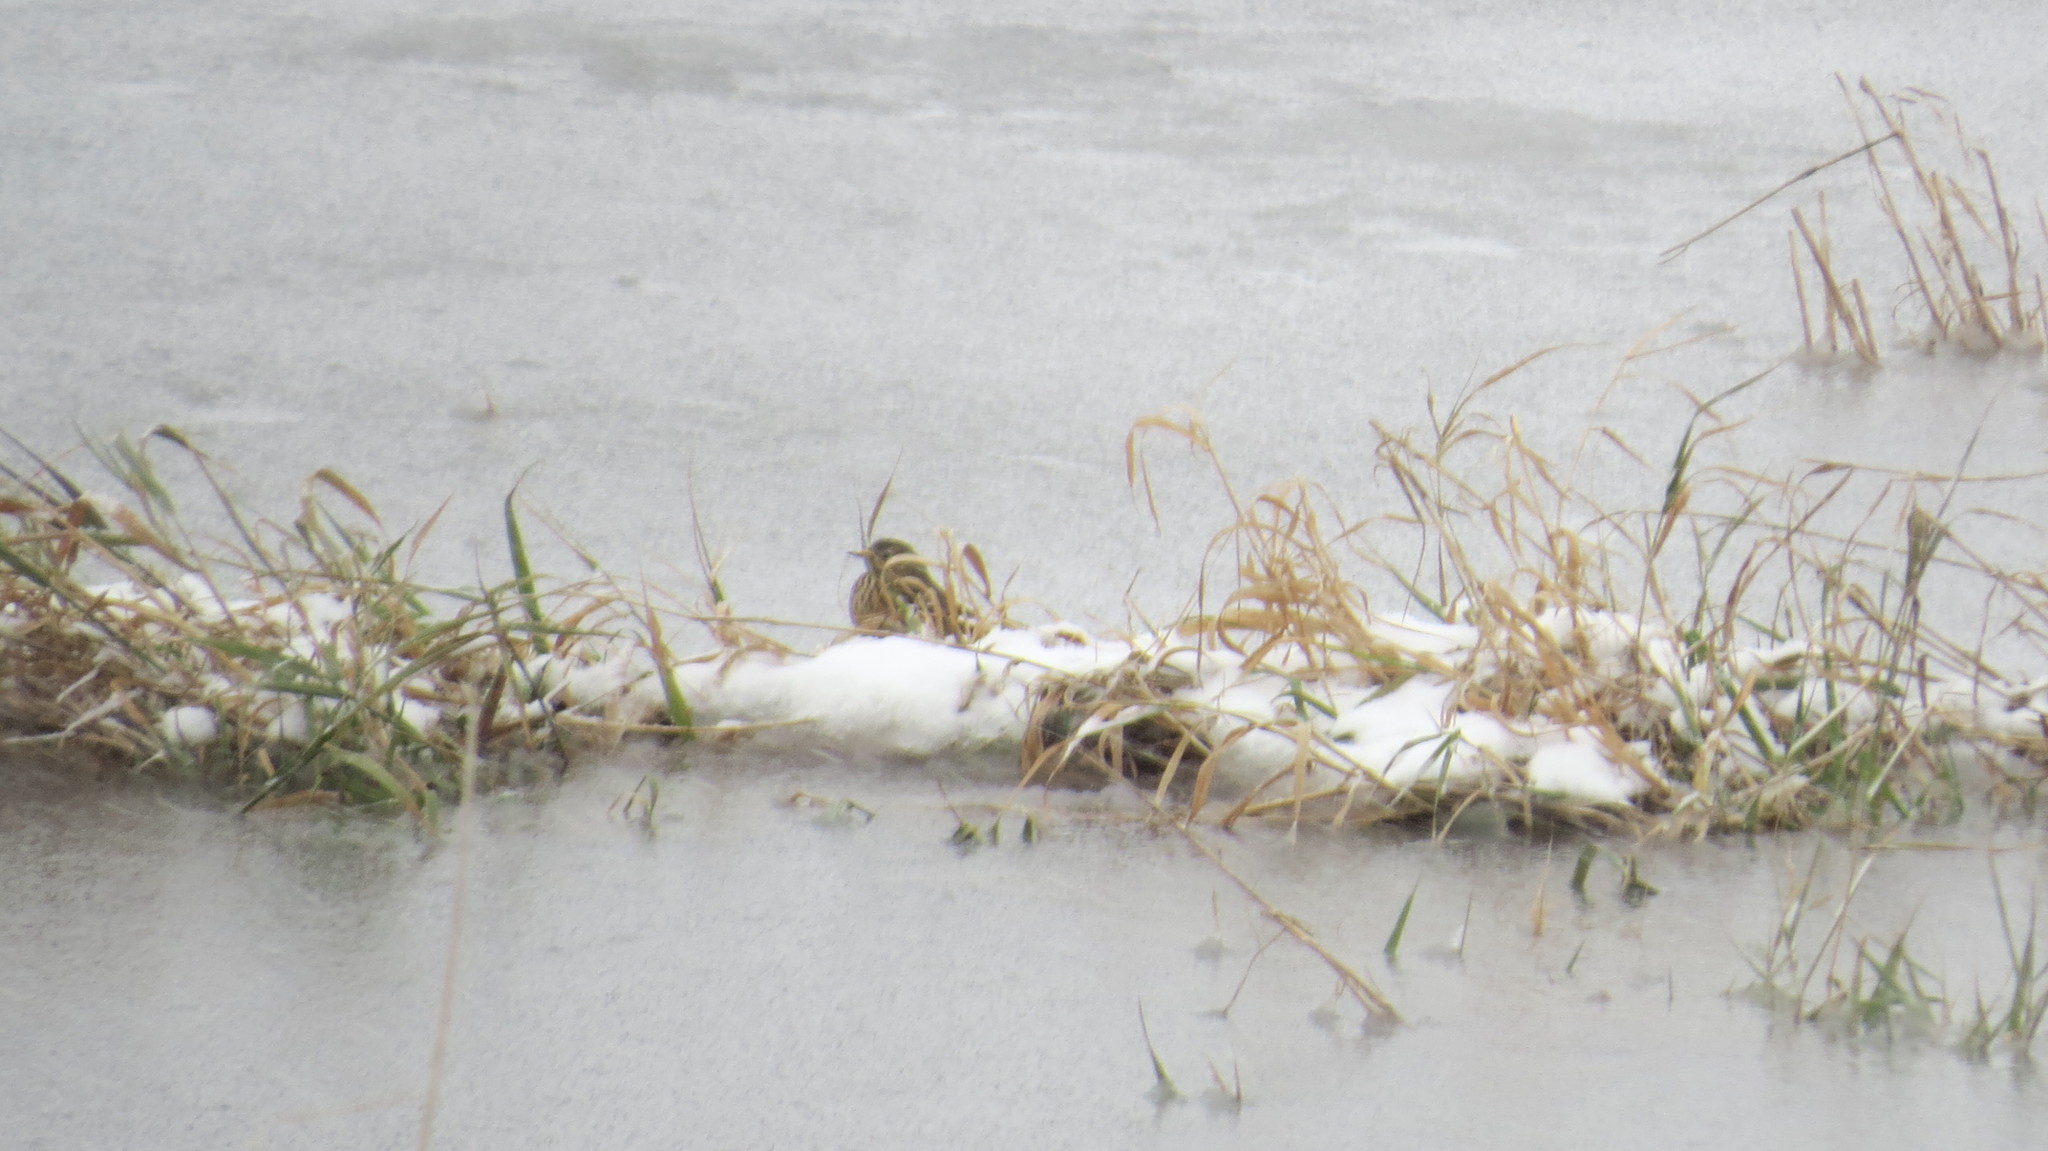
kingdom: Animalia
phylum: Chordata
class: Aves
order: Passeriformes
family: Motacillidae
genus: Anthus
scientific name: Anthus rubescens
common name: Buff-bellied pipit
